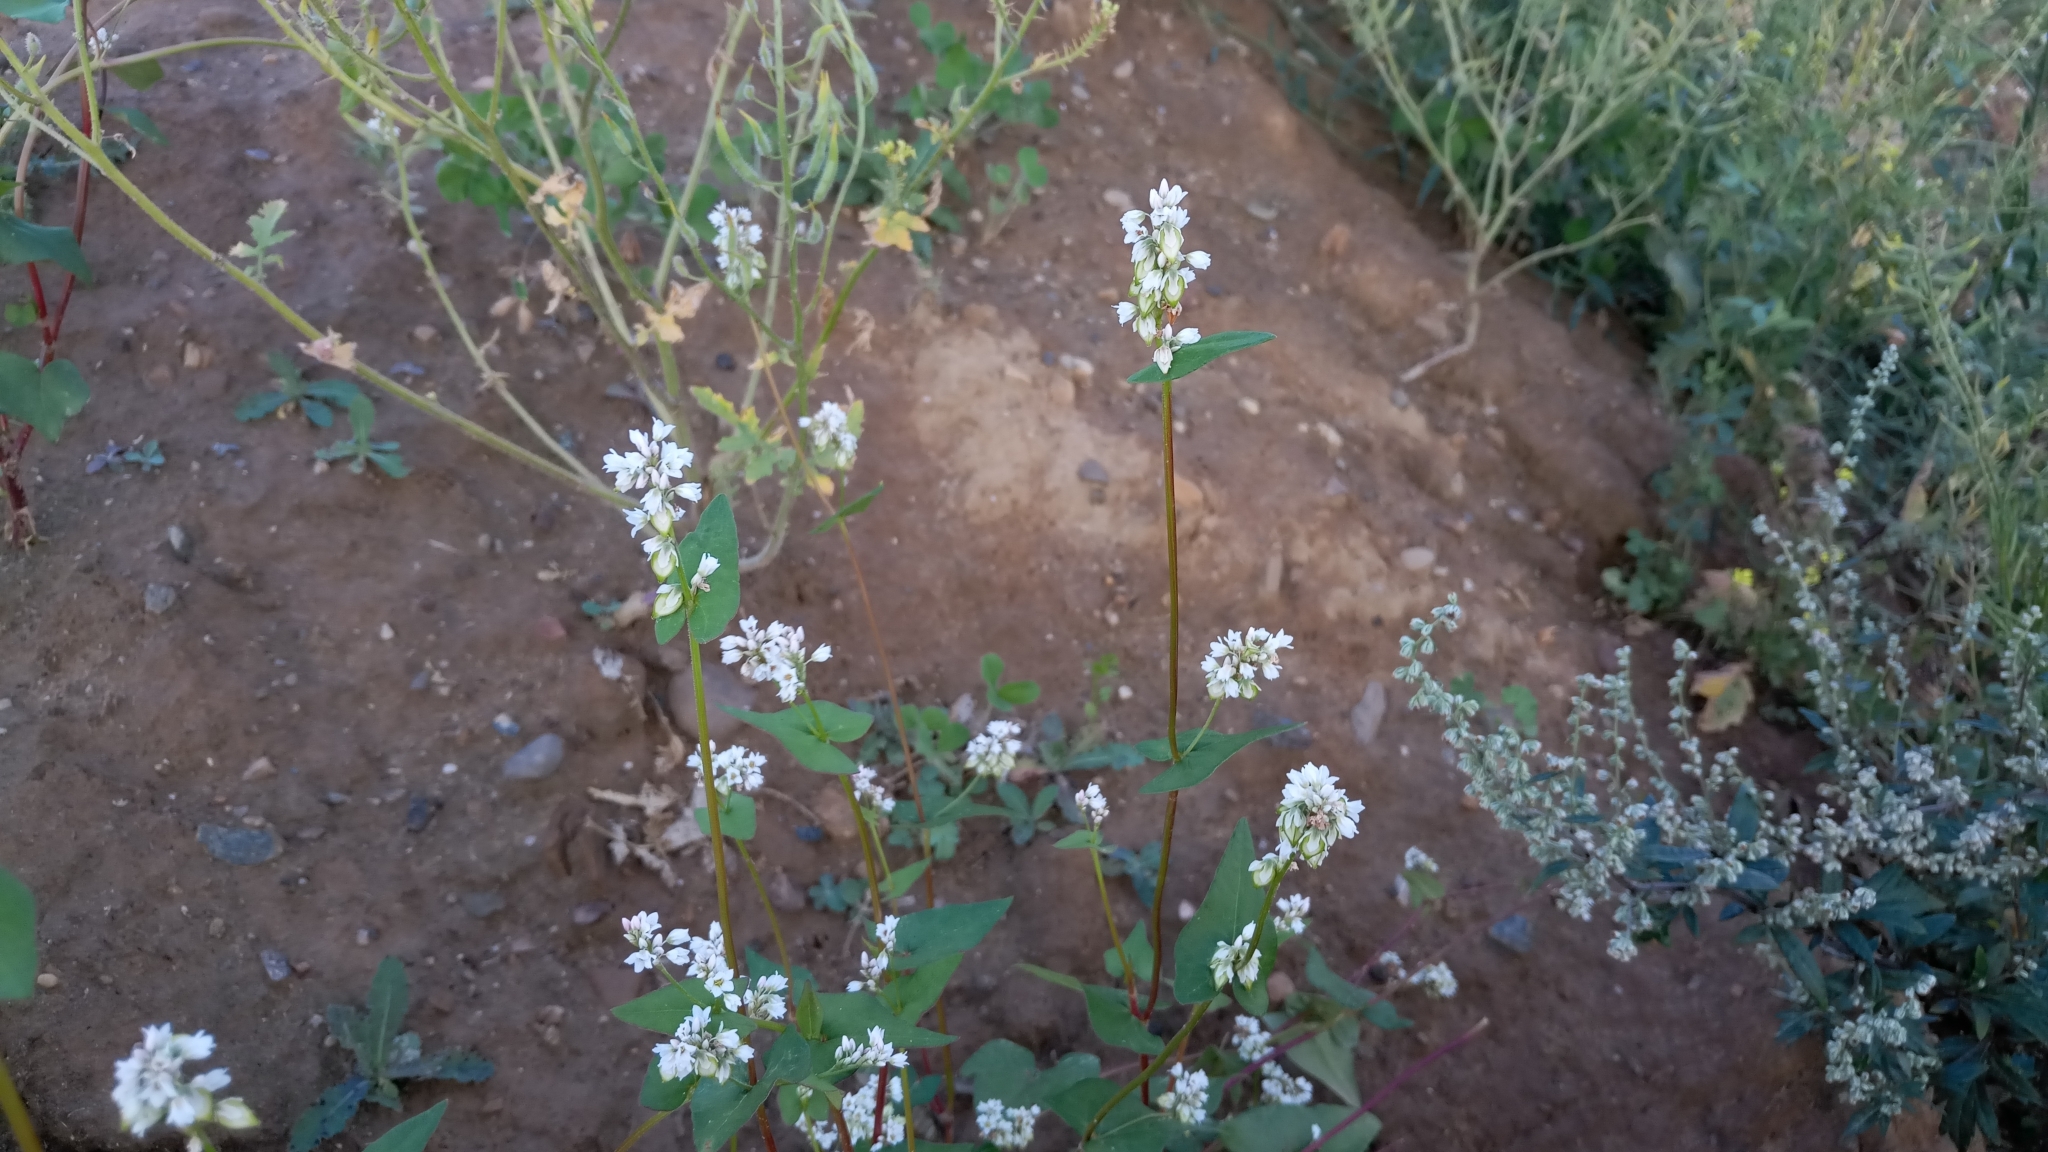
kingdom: Plantae
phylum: Tracheophyta
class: Magnoliopsida
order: Caryophyllales
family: Polygonaceae
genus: Fagopyrum
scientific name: Fagopyrum esculentum
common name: Buckwheat
